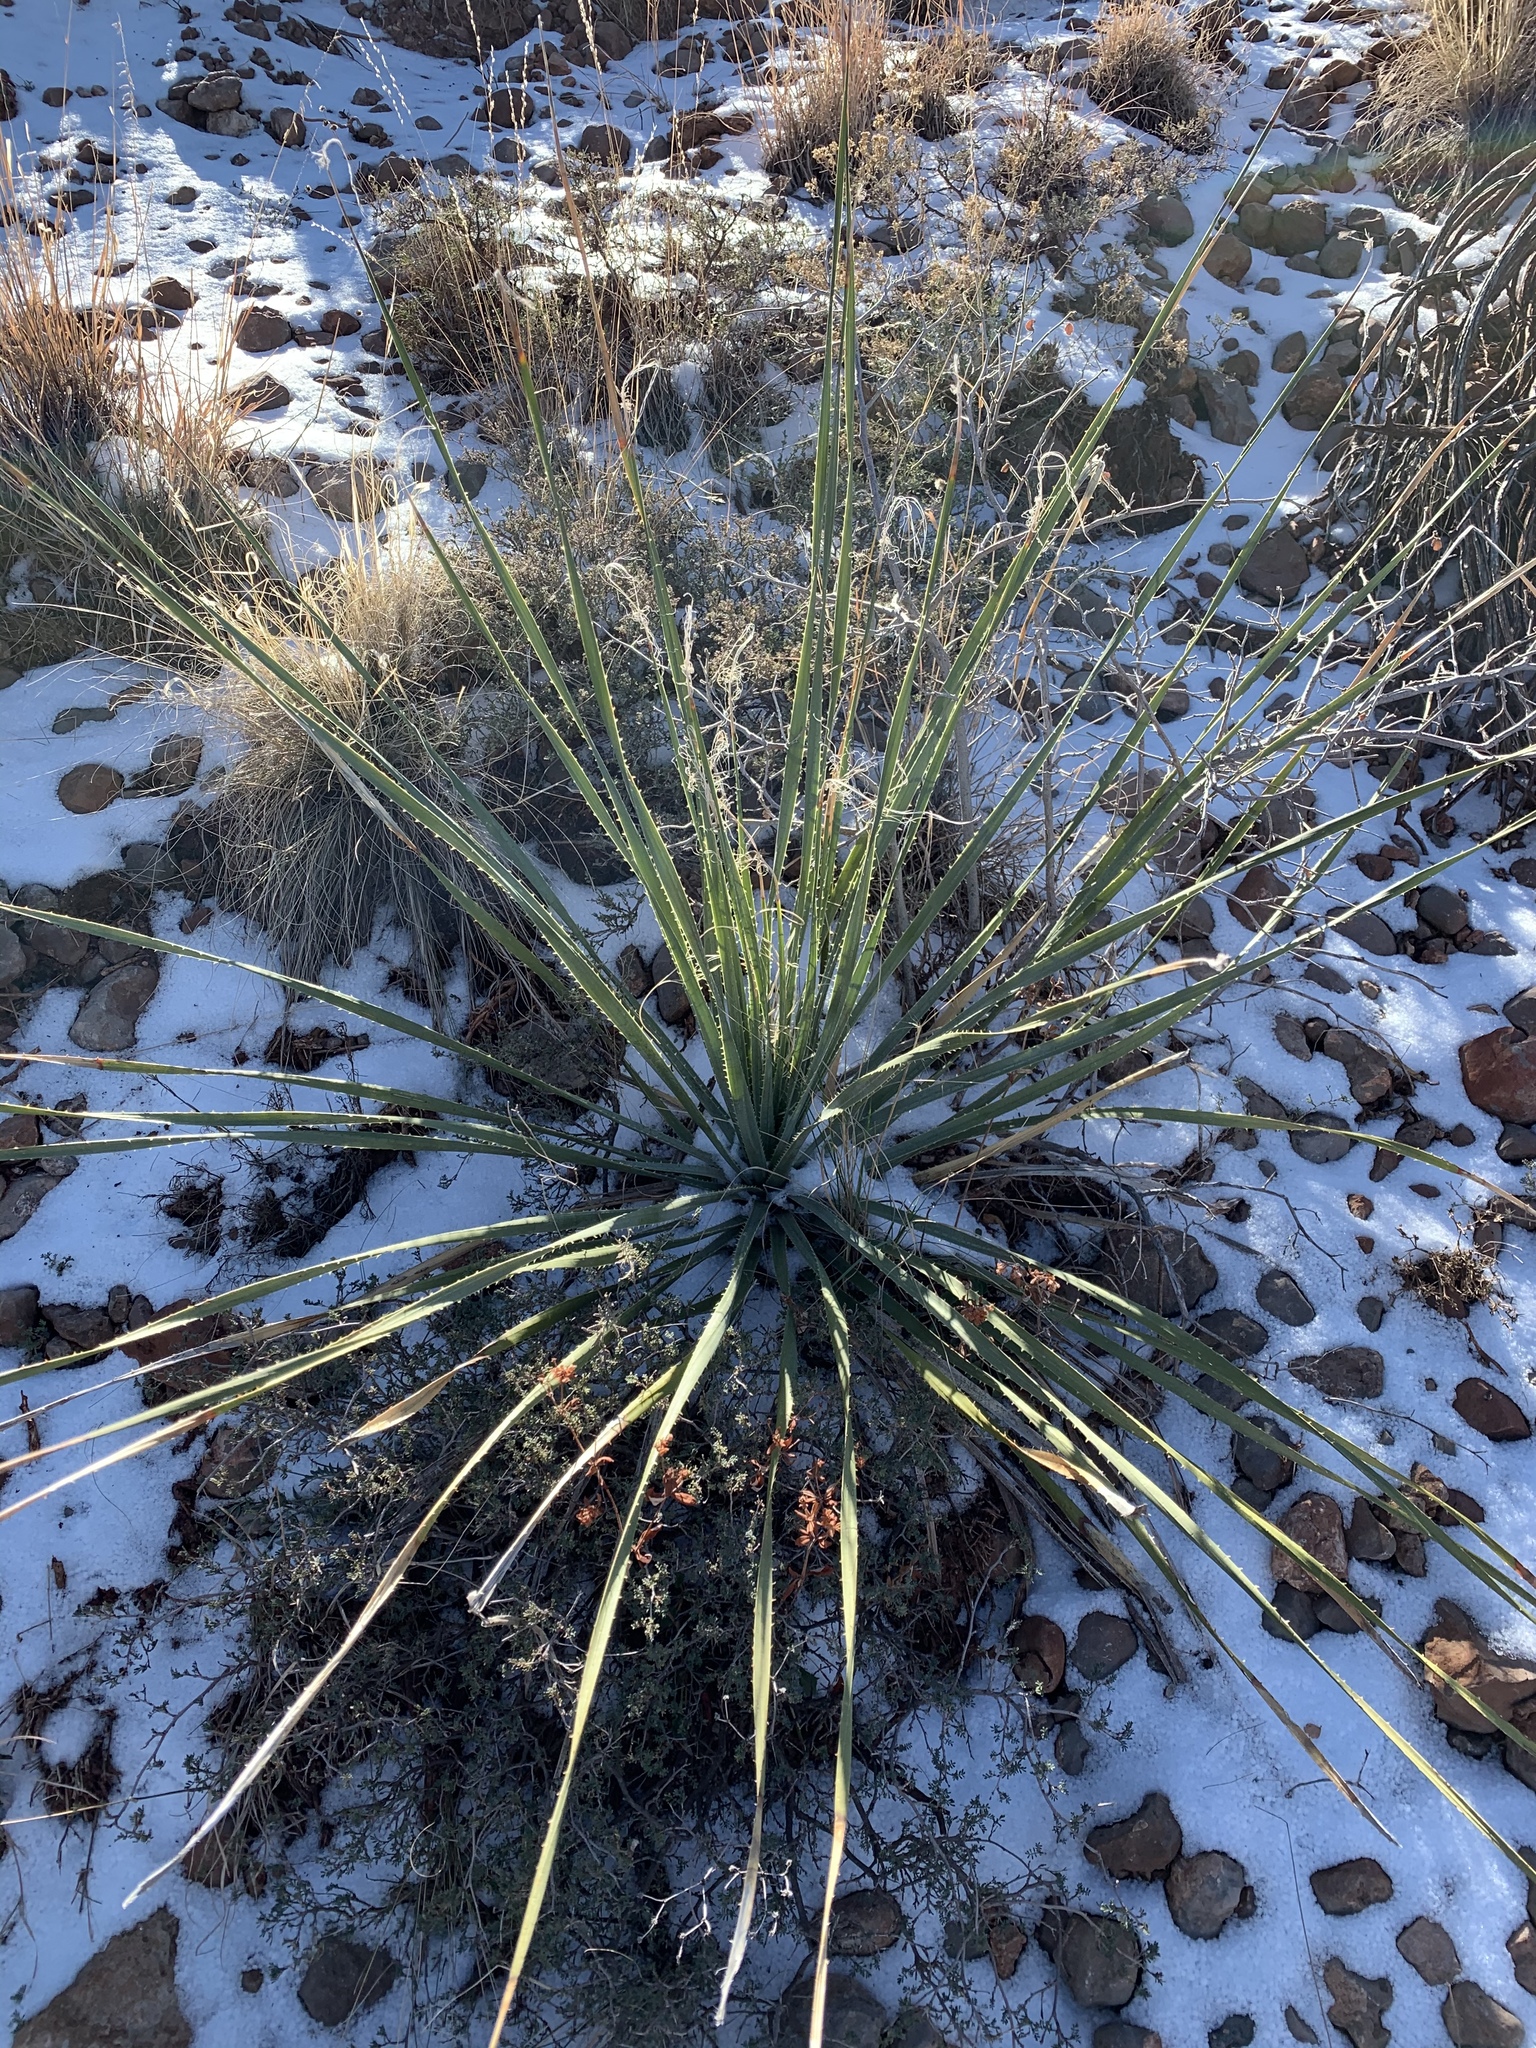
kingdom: Plantae
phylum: Tracheophyta
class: Liliopsida
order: Asparagales
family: Asparagaceae
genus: Dasylirion
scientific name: Dasylirion wheeleri
